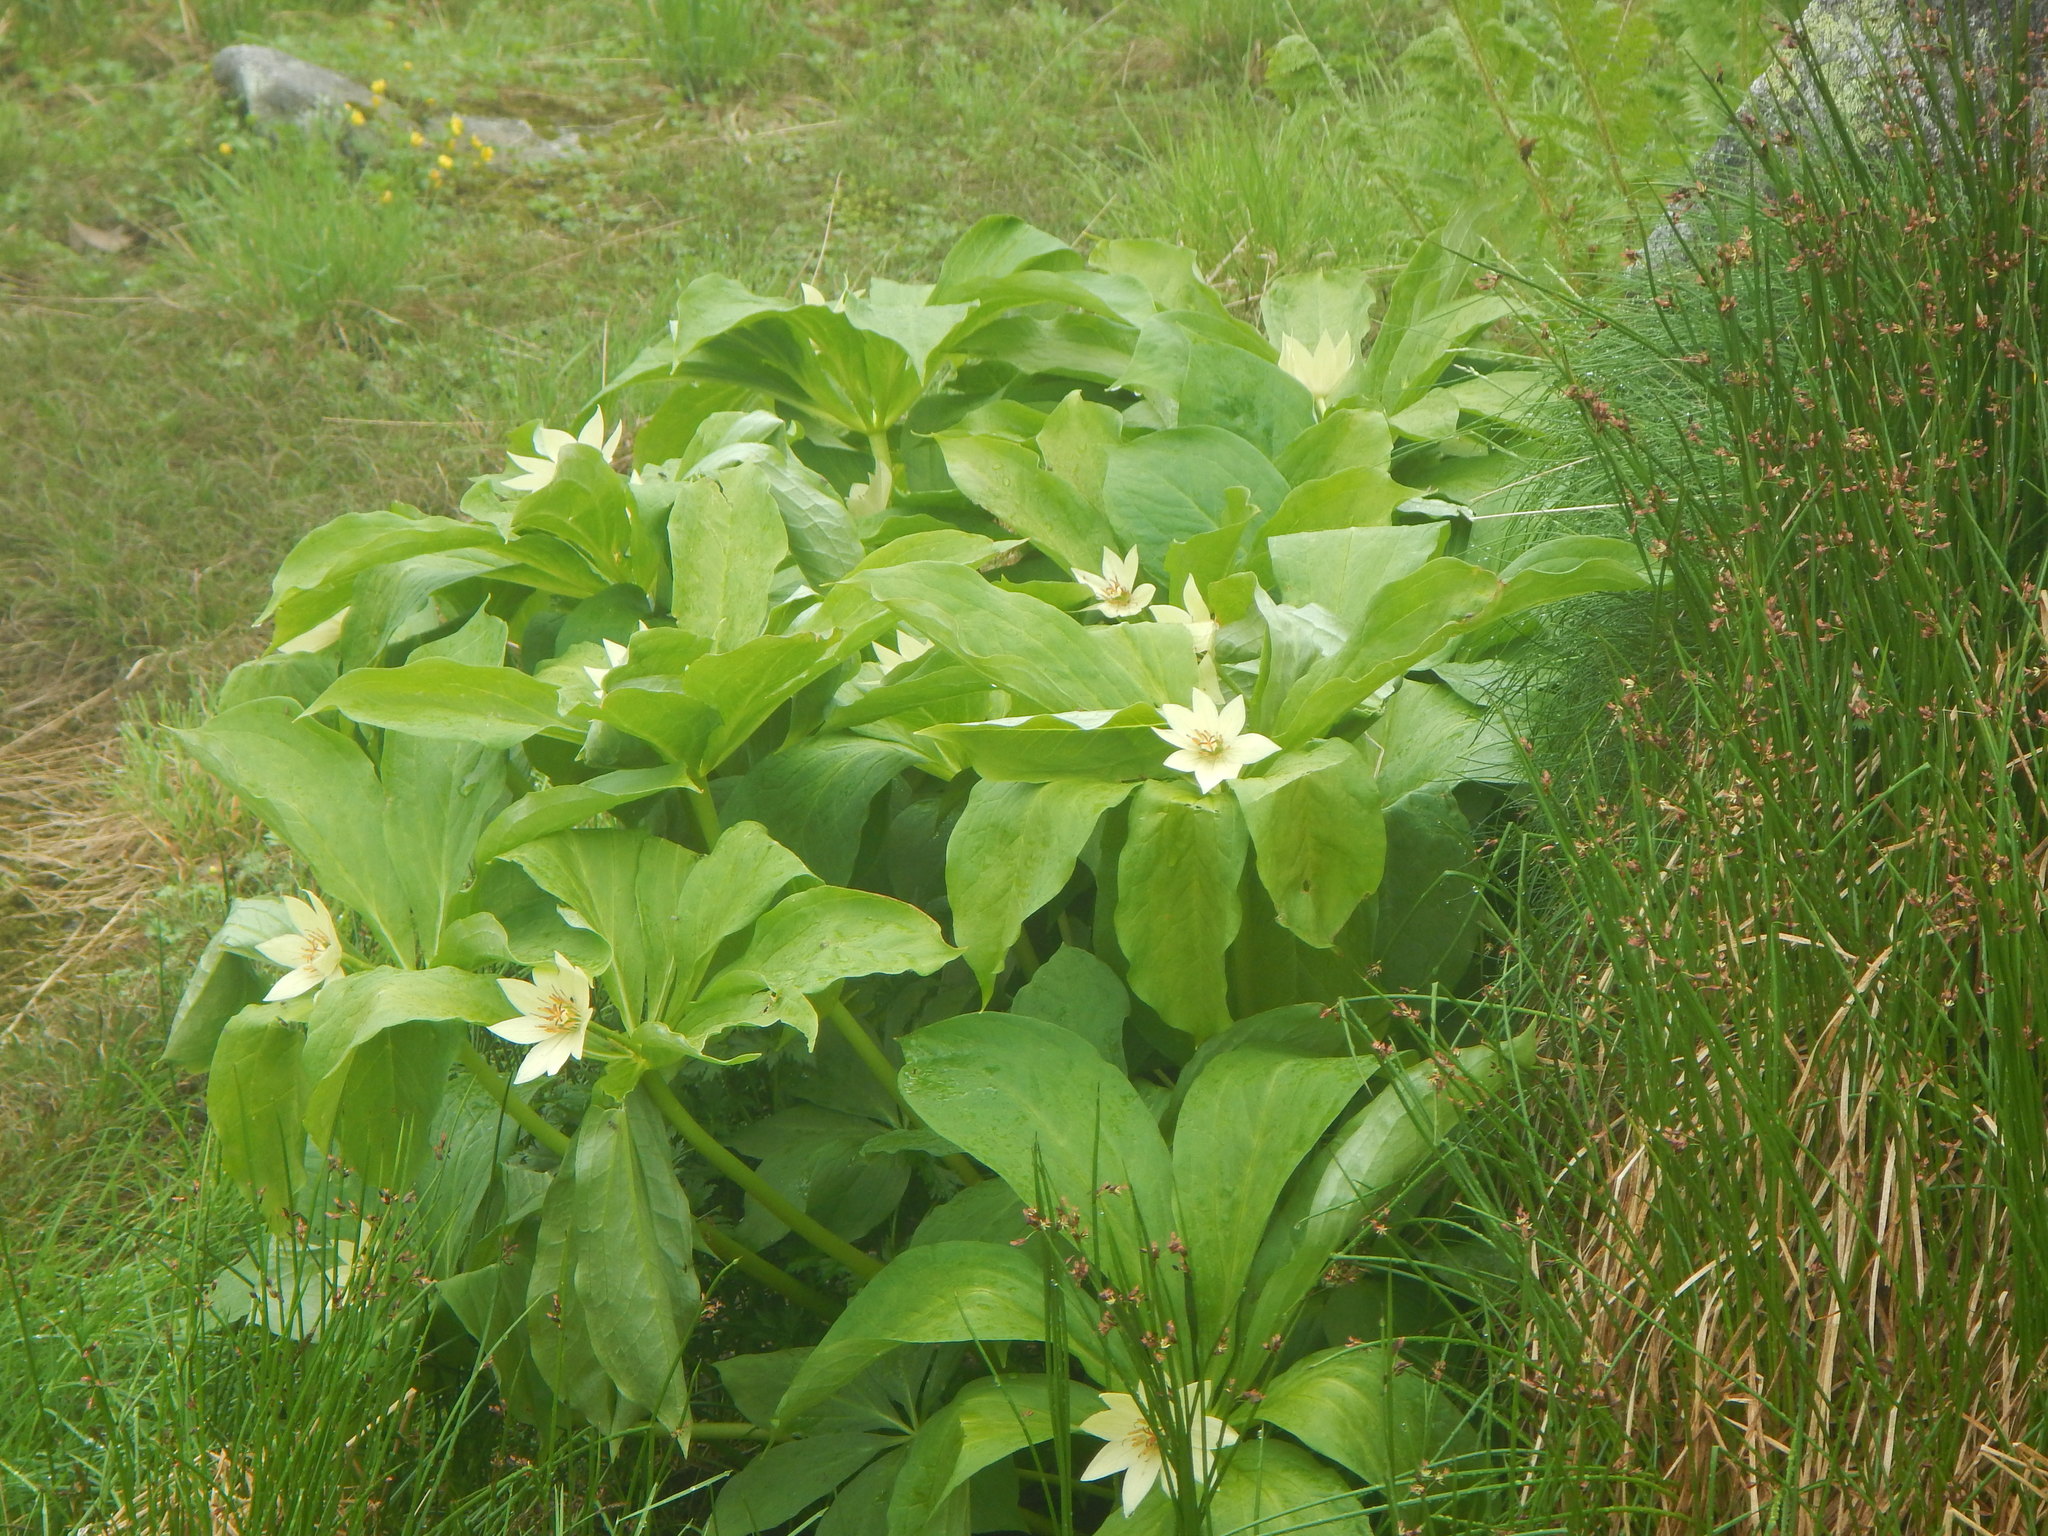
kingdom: Plantae
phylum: Tracheophyta
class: Liliopsida
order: Liliales
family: Melanthiaceae
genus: Paris
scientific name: Paris japonica
